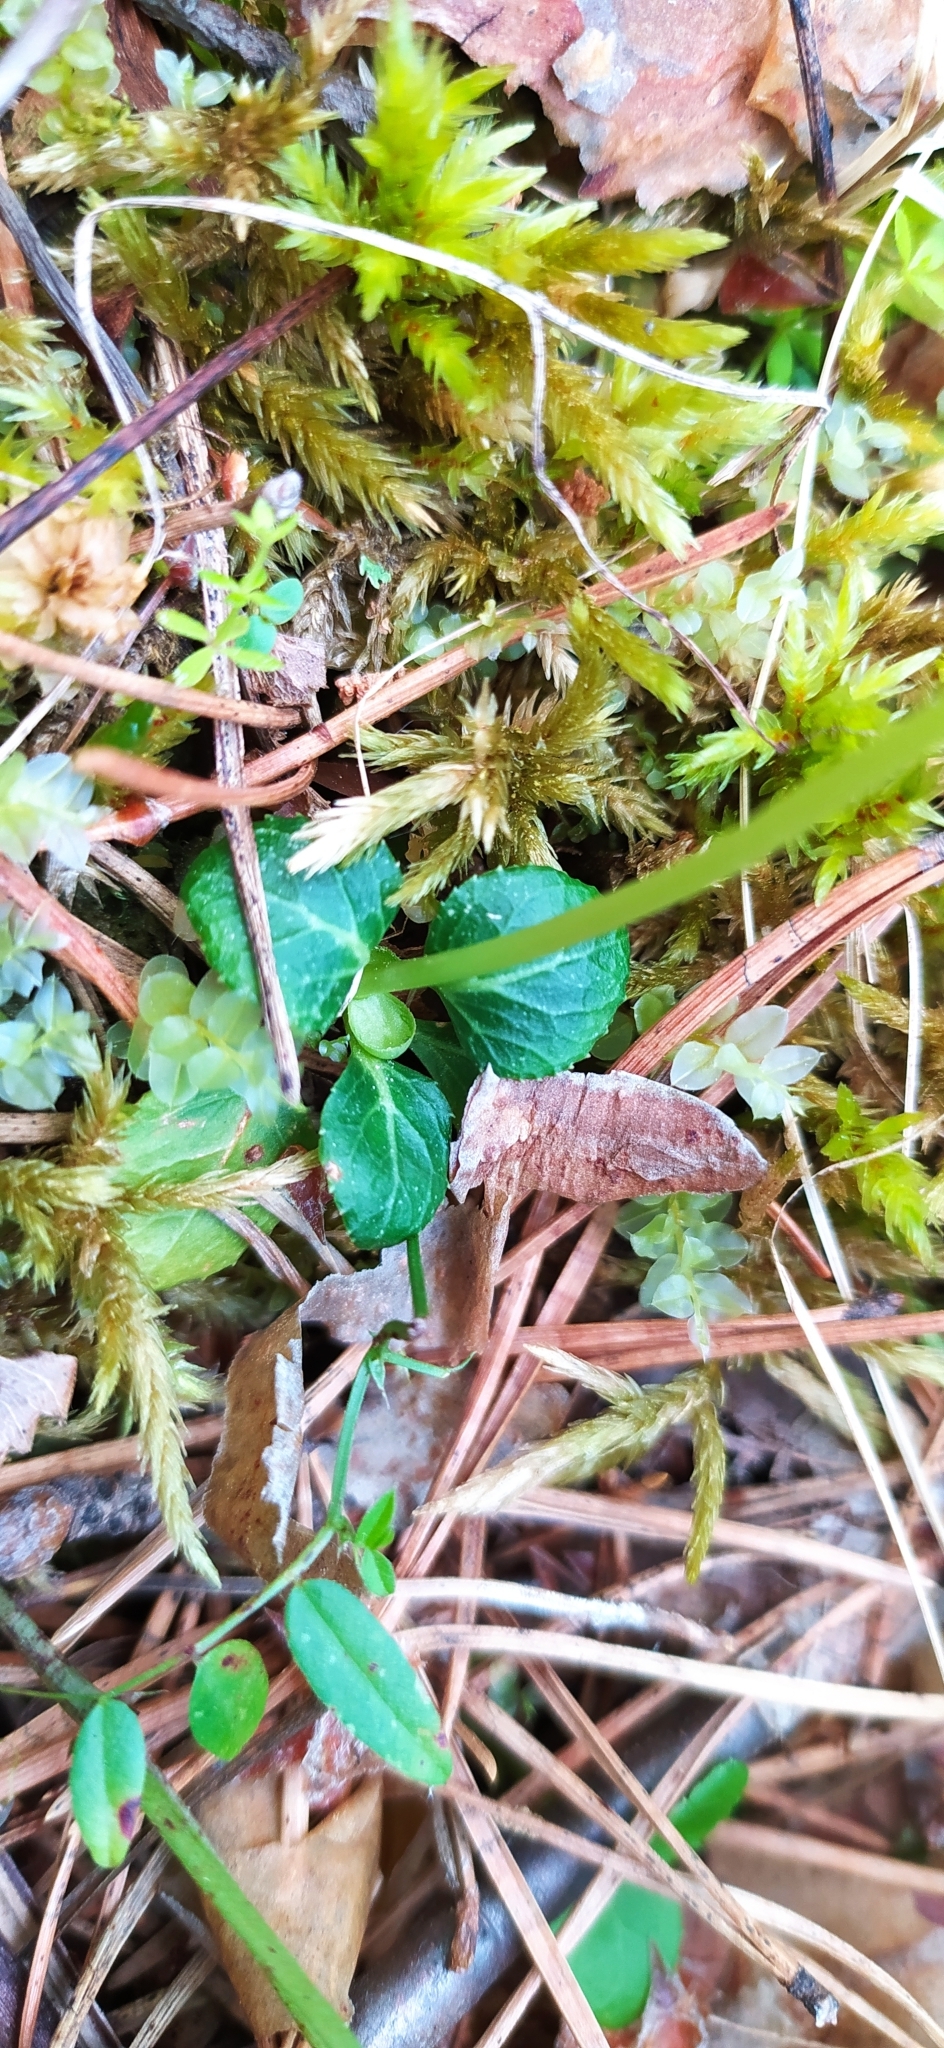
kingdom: Plantae
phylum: Tracheophyta
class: Magnoliopsida
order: Ericales
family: Ericaceae
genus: Moneses
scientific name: Moneses uniflora
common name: One-flowered wintergreen
